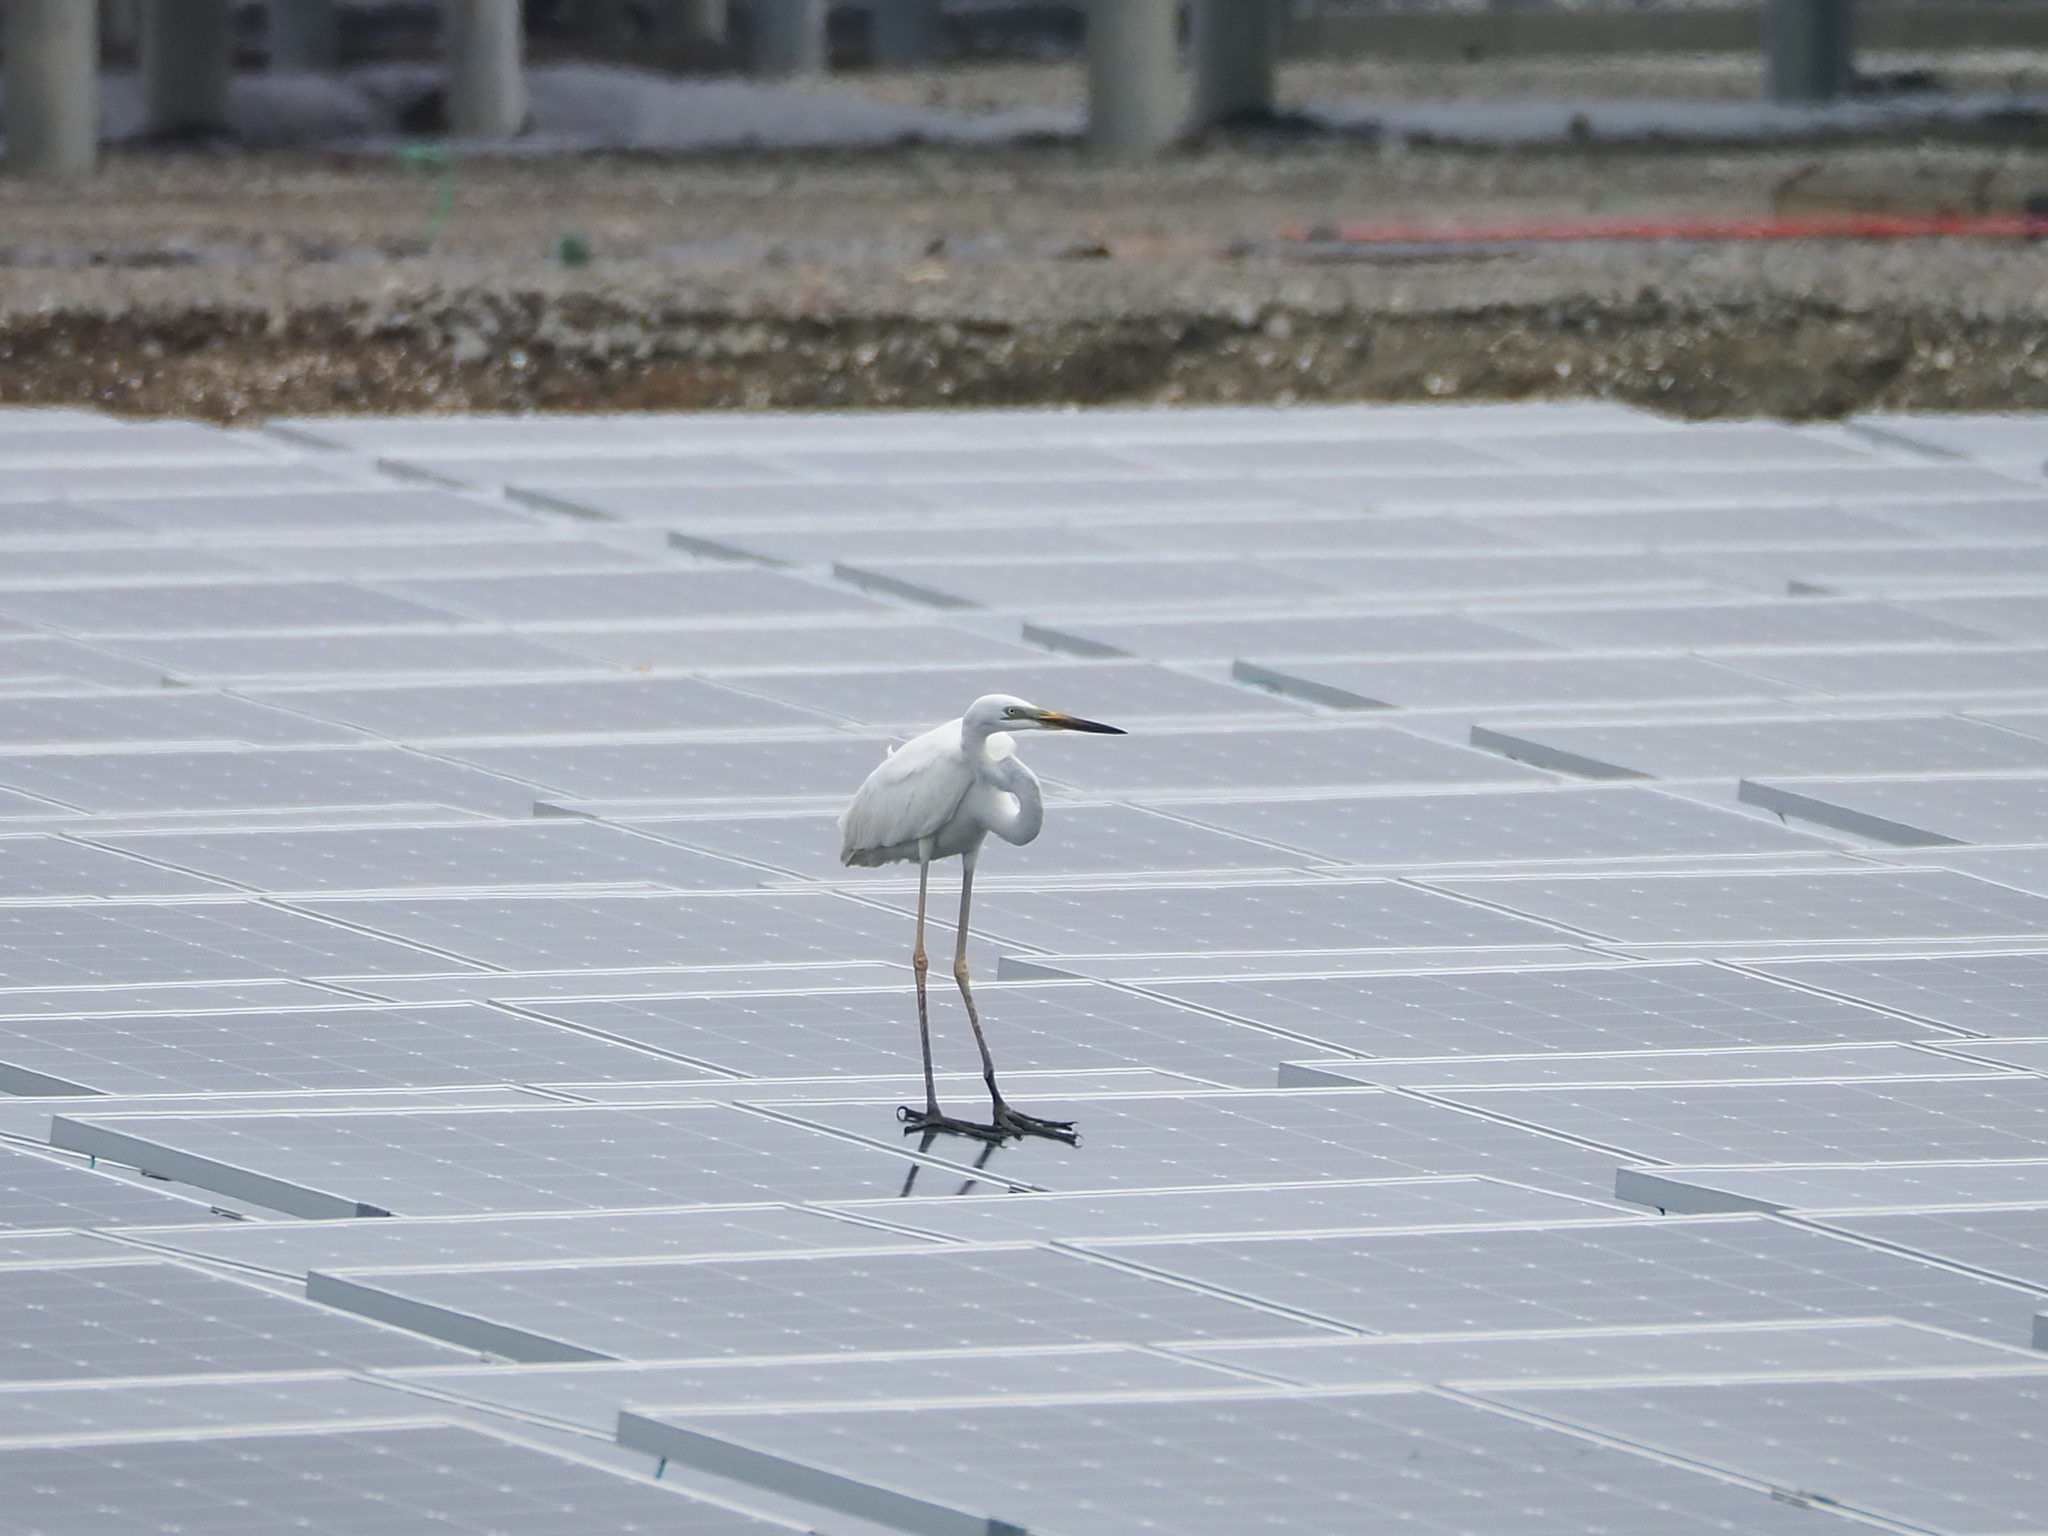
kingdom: Animalia
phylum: Chordata
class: Aves
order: Pelecaniformes
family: Ardeidae
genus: Ardea
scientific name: Ardea alba
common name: Great egret
